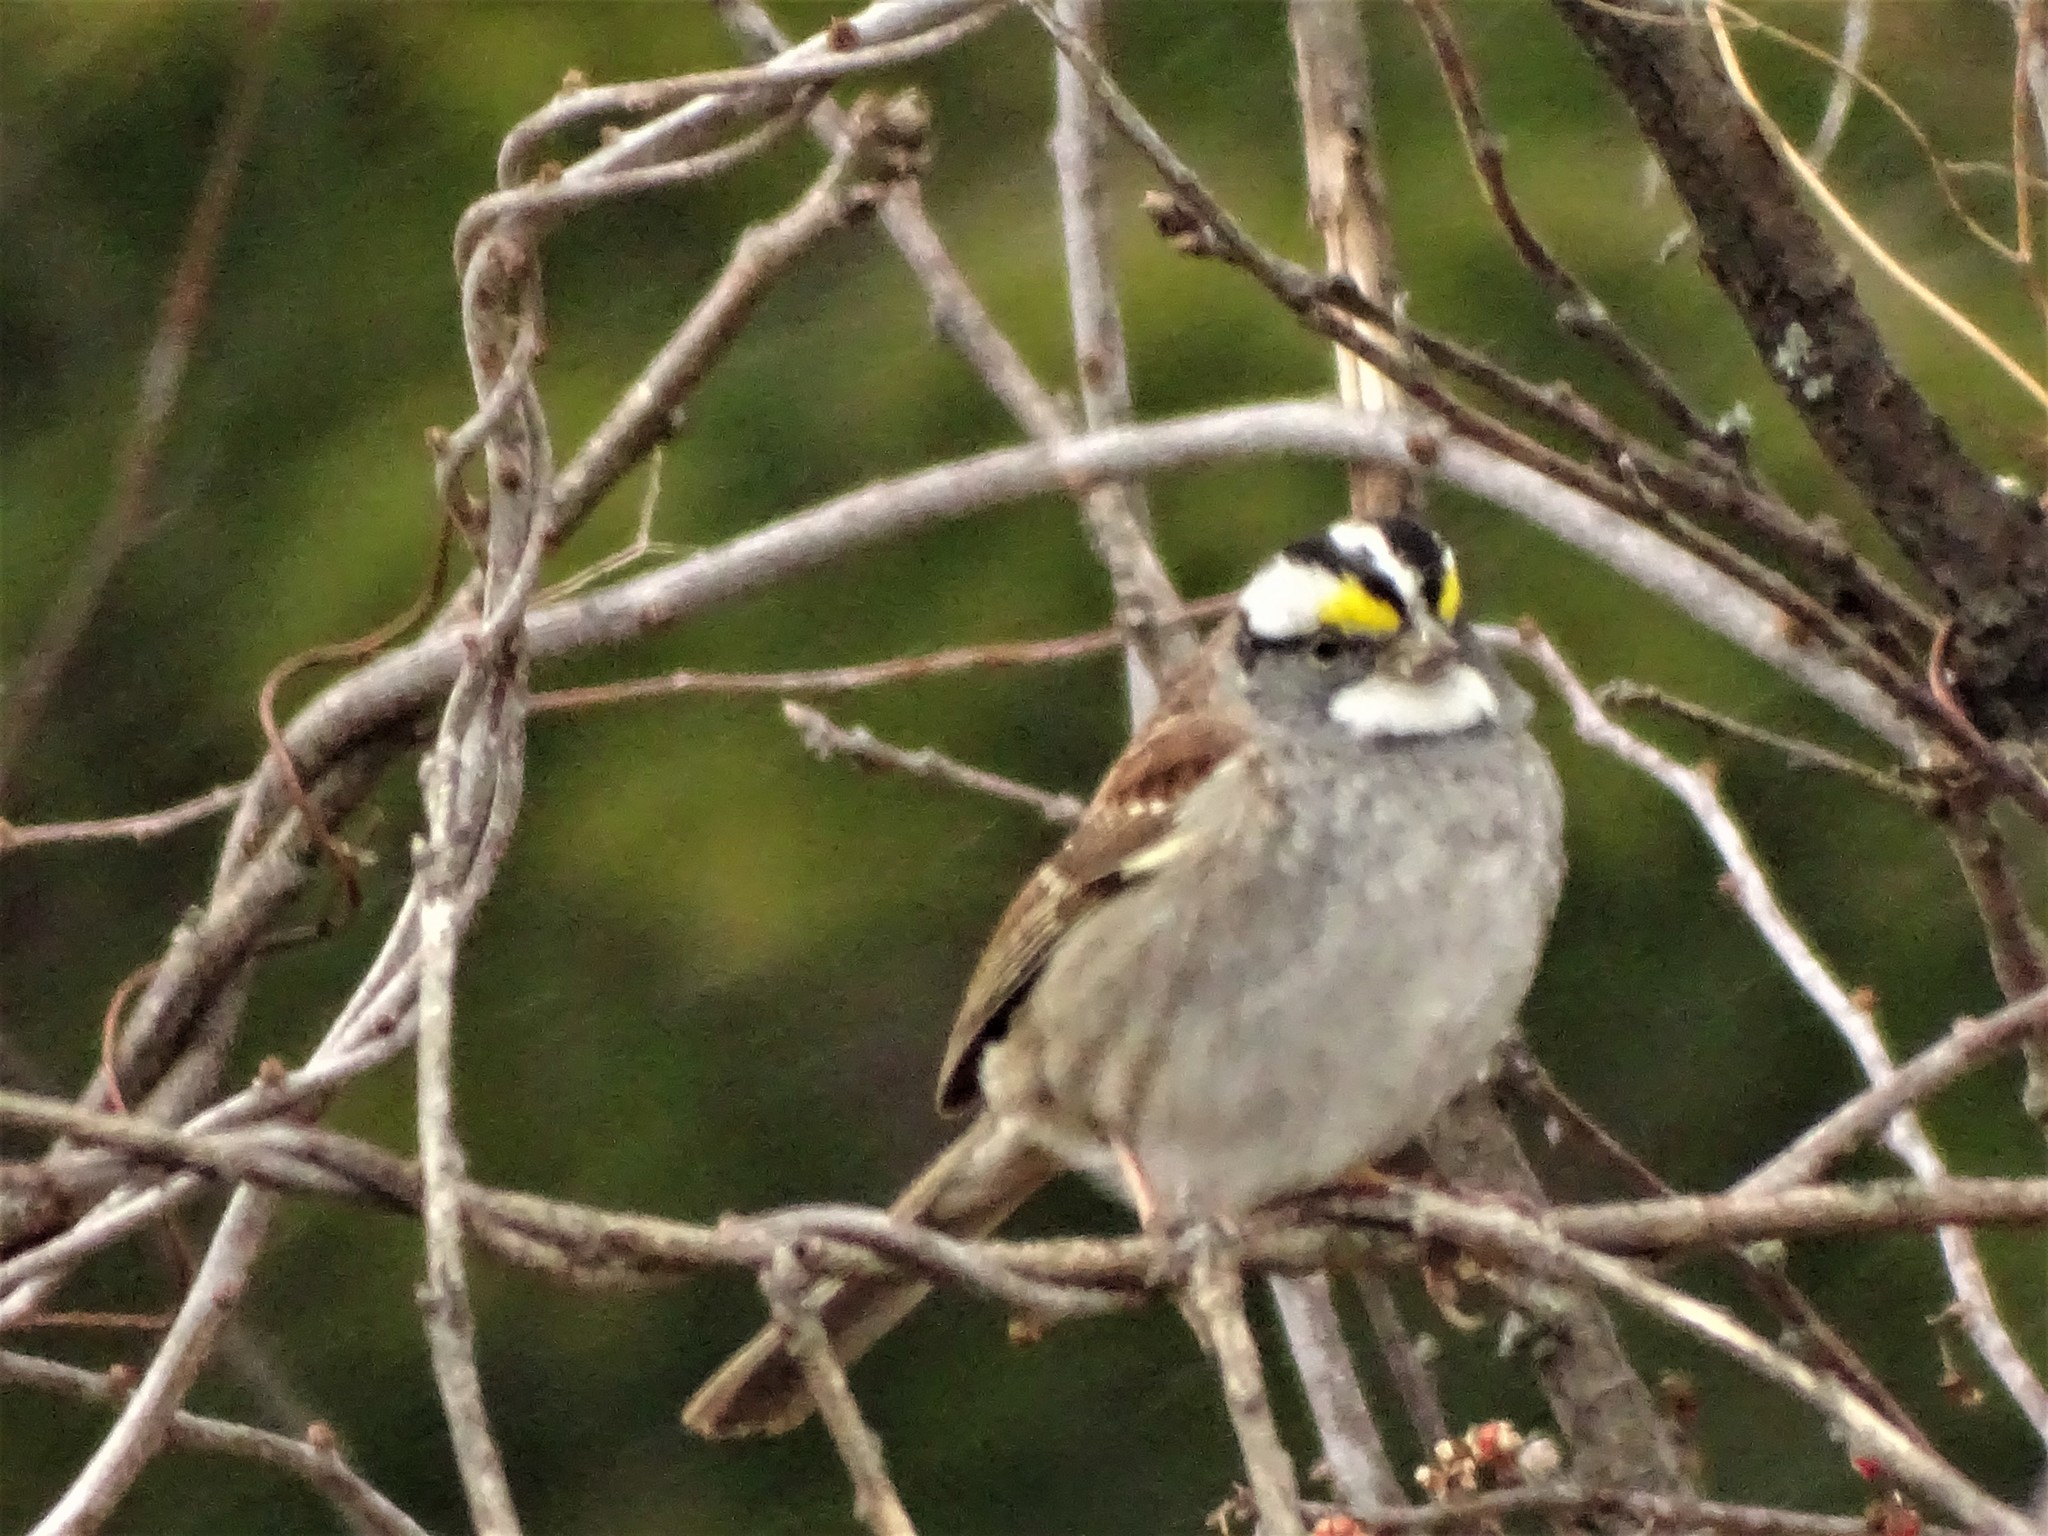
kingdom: Animalia
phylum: Chordata
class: Aves
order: Passeriformes
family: Passerellidae
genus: Zonotrichia
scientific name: Zonotrichia albicollis
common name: White-throated sparrow
